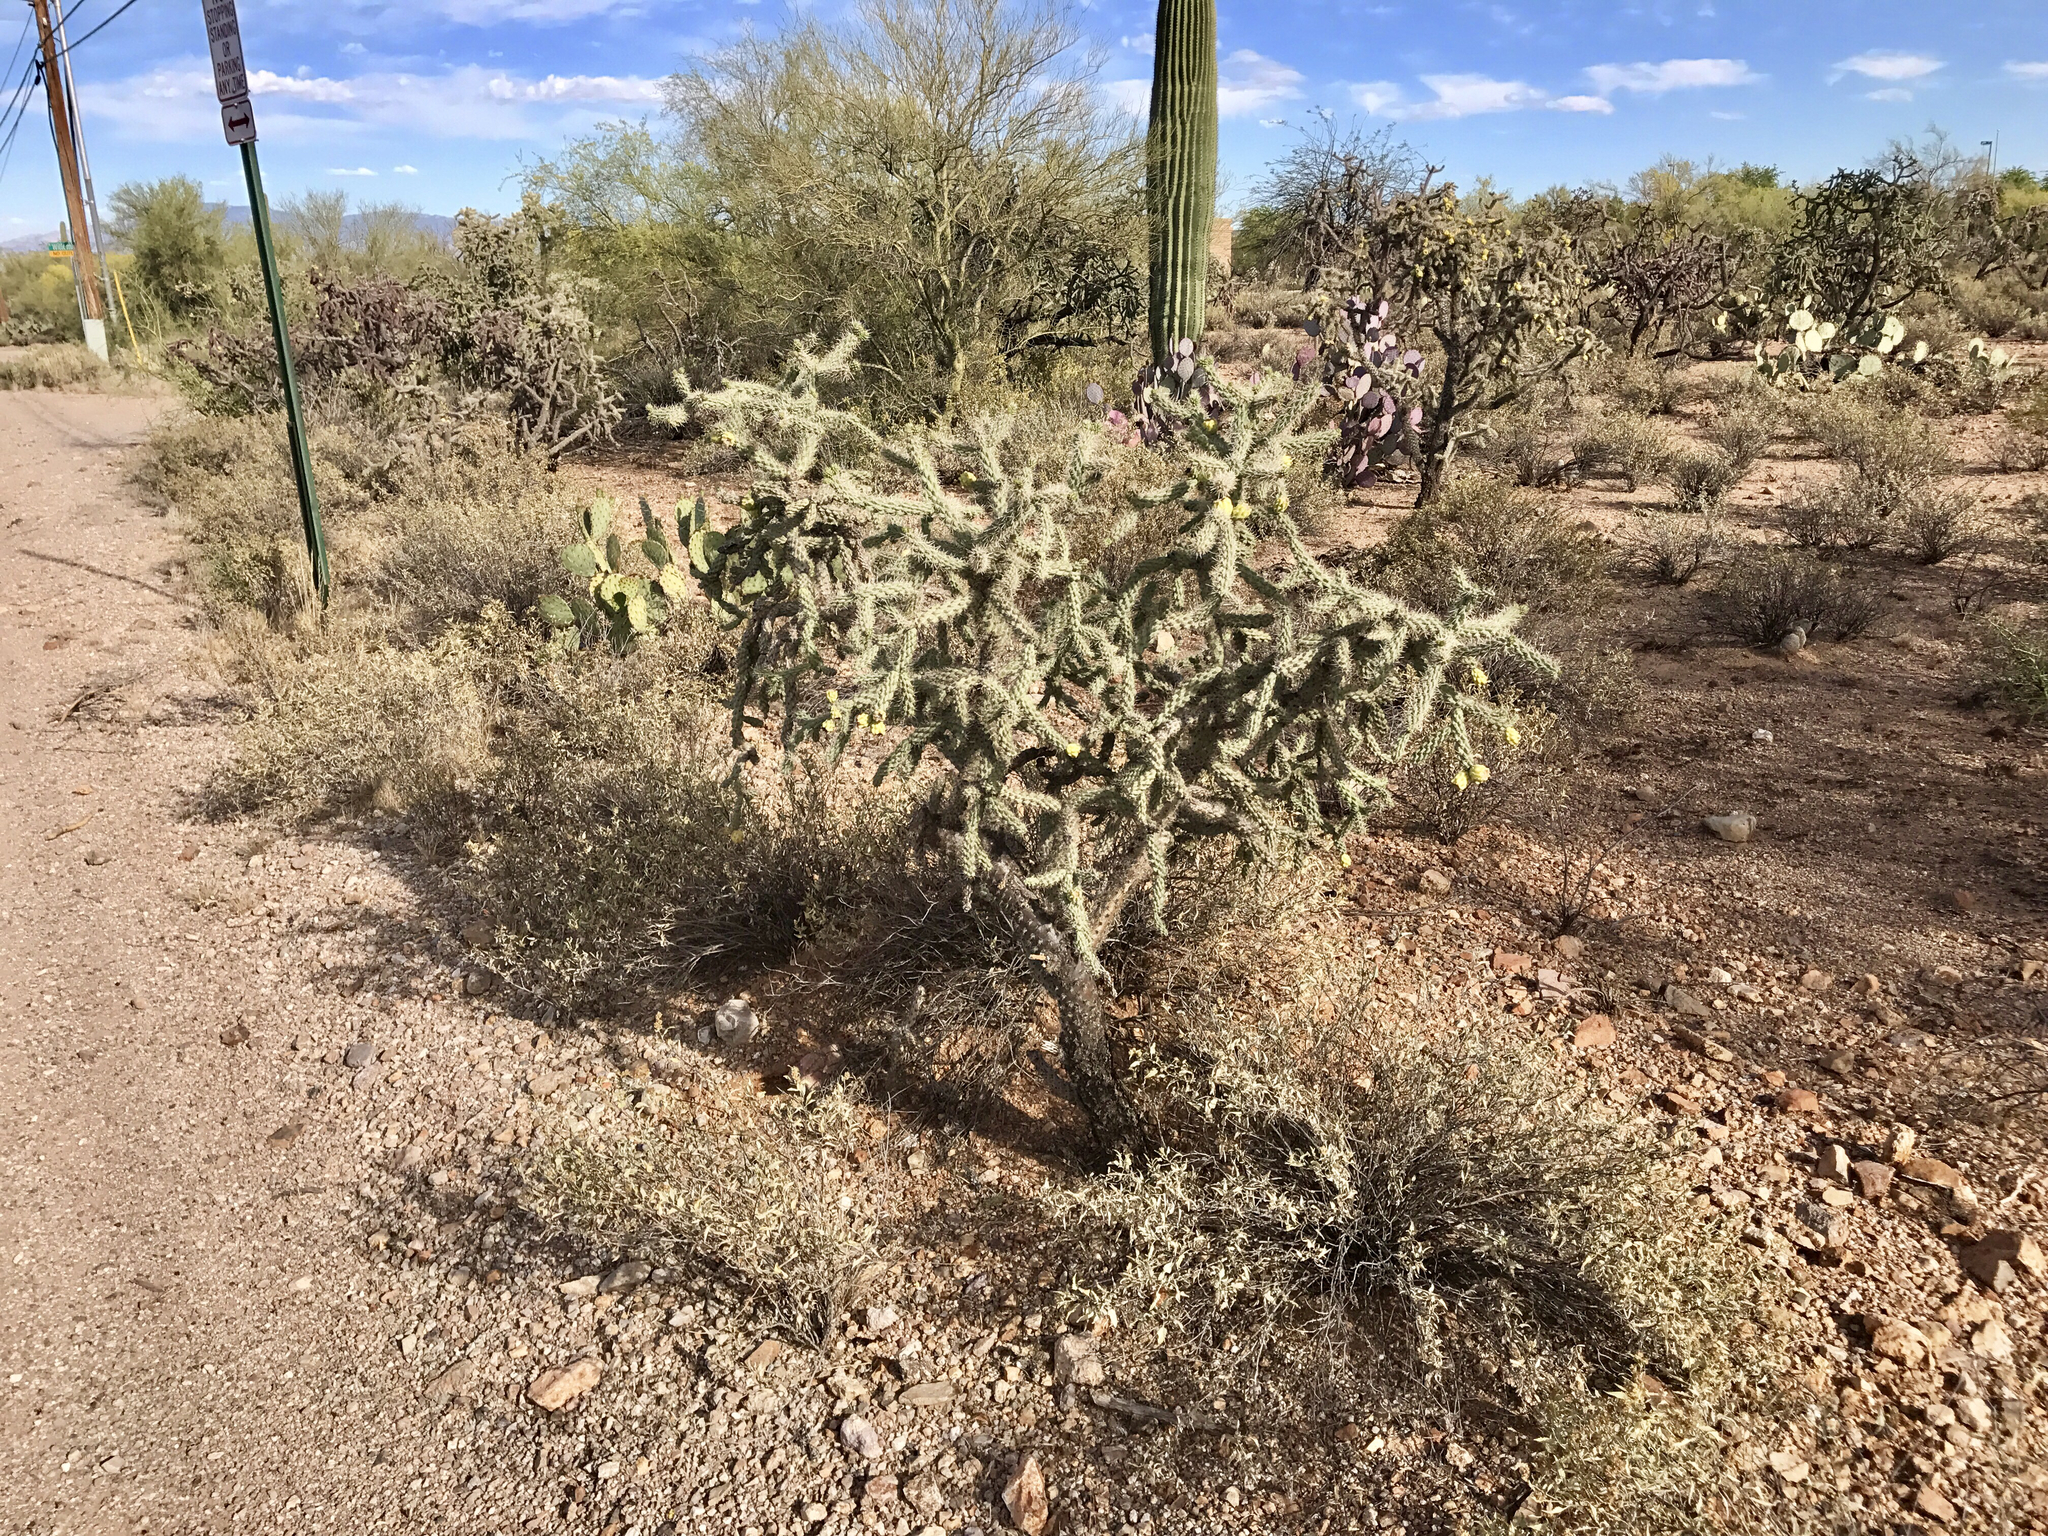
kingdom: Plantae
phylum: Tracheophyta
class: Magnoliopsida
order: Caryophyllales
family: Cactaceae
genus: Cylindropuntia
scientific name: Cylindropuntia imbricata
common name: Candelabrum cactus
